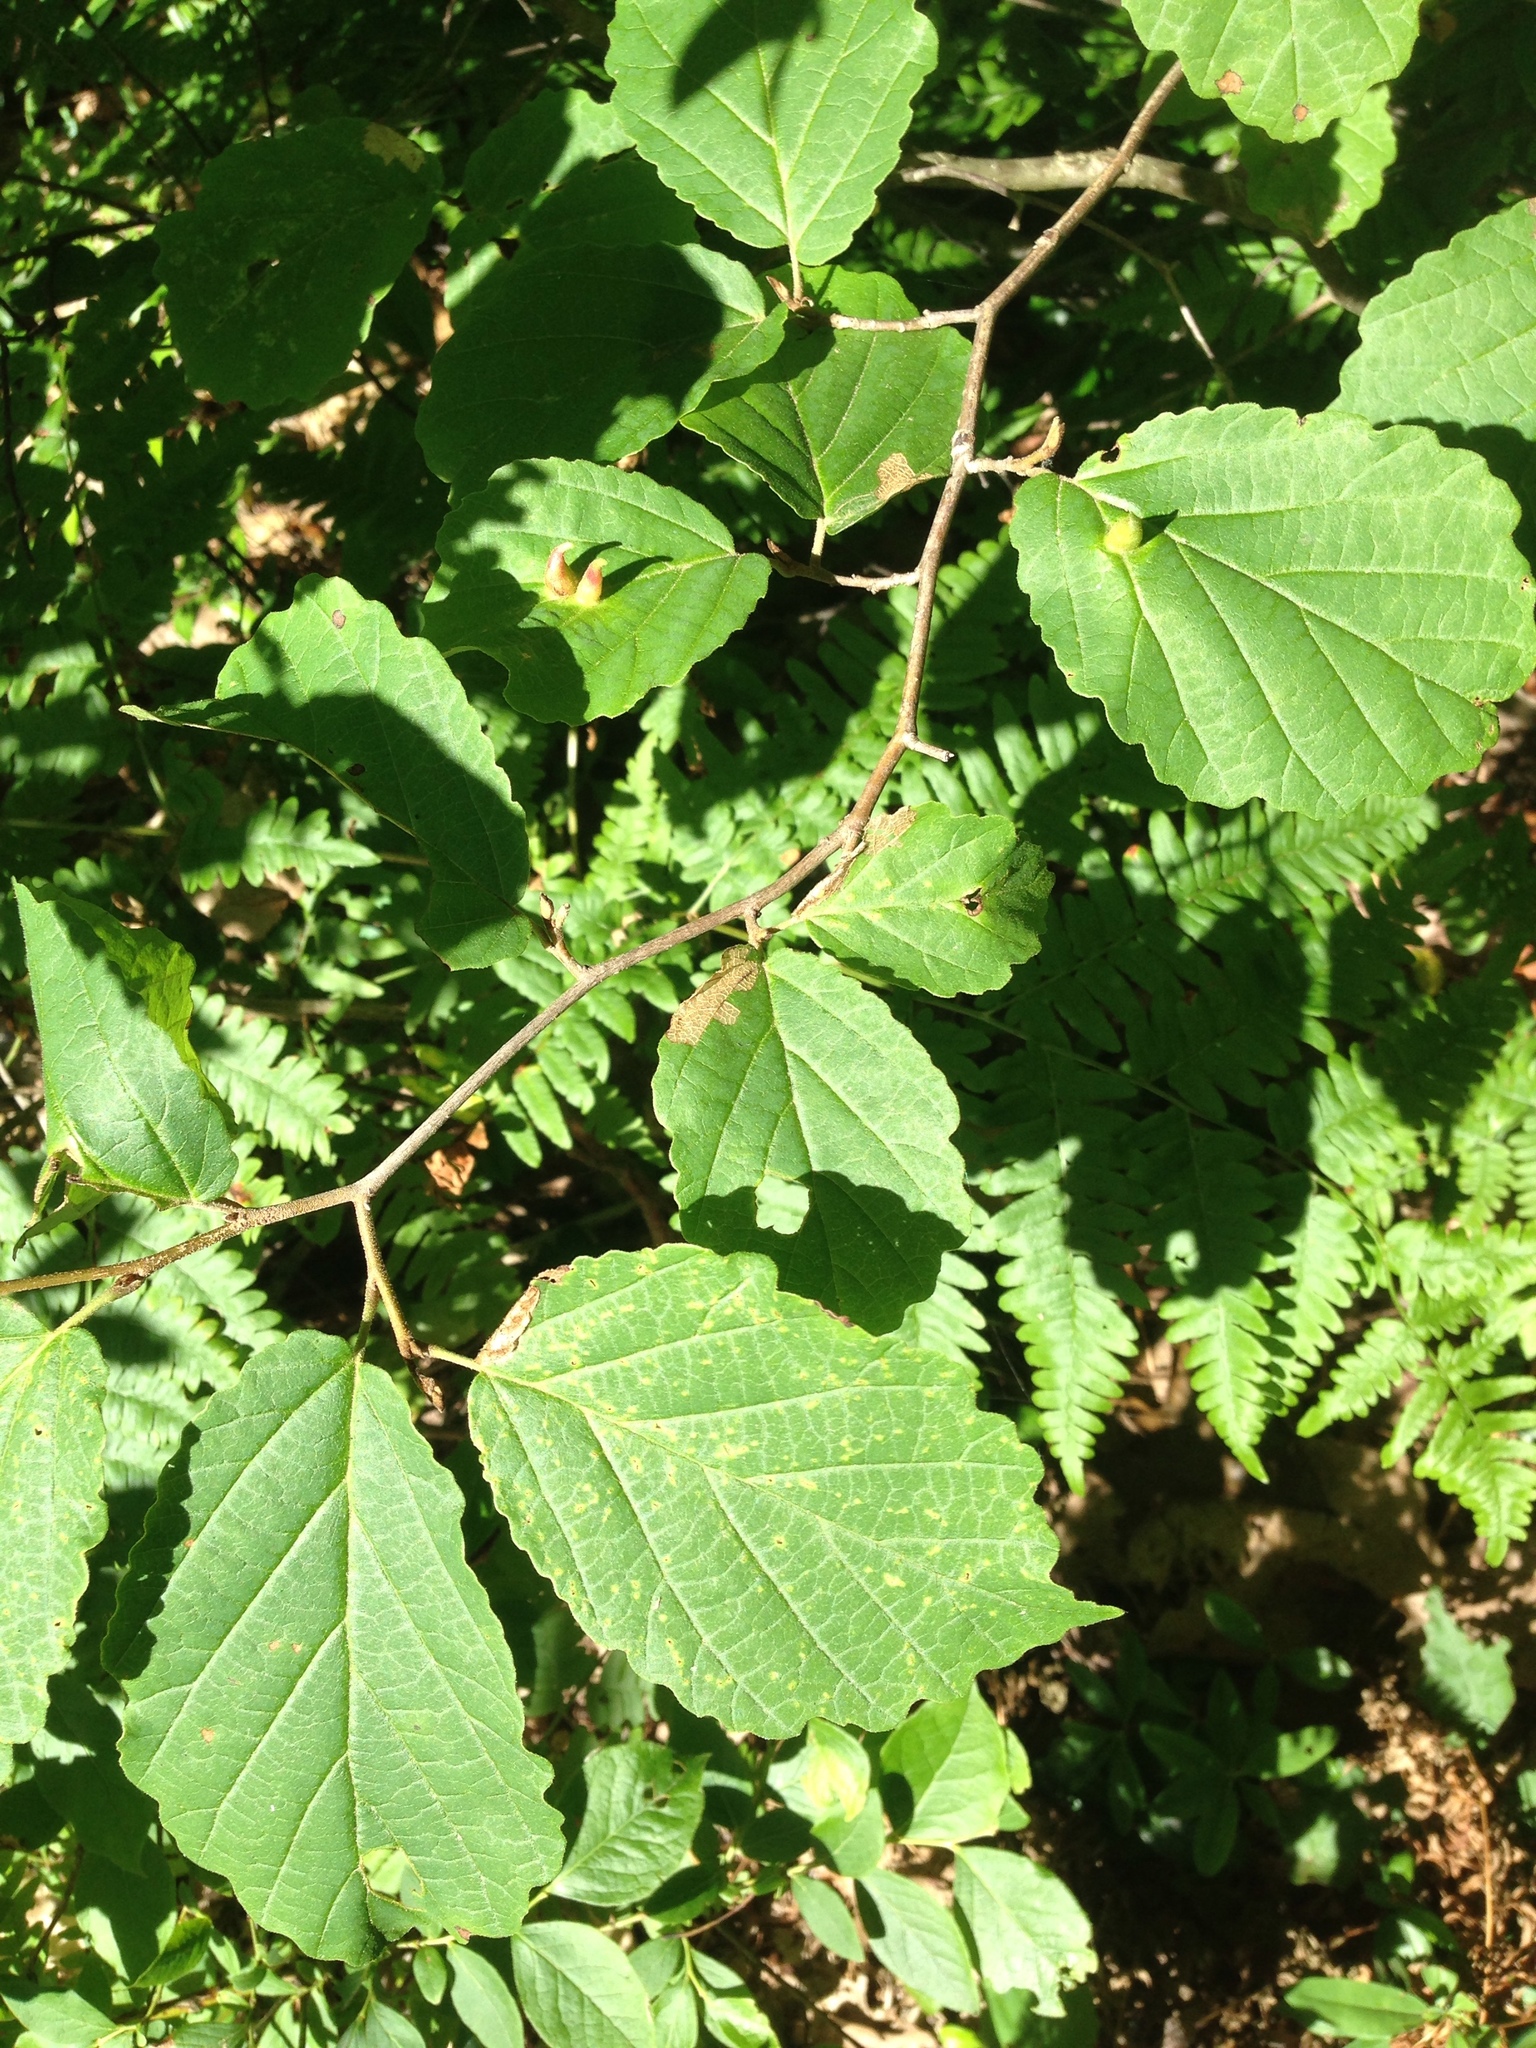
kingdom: Animalia
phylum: Arthropoda
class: Insecta
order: Hemiptera
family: Aphididae
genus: Hormaphis
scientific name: Hormaphis hamamelidis
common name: Witch-hazel cone gall aphid
